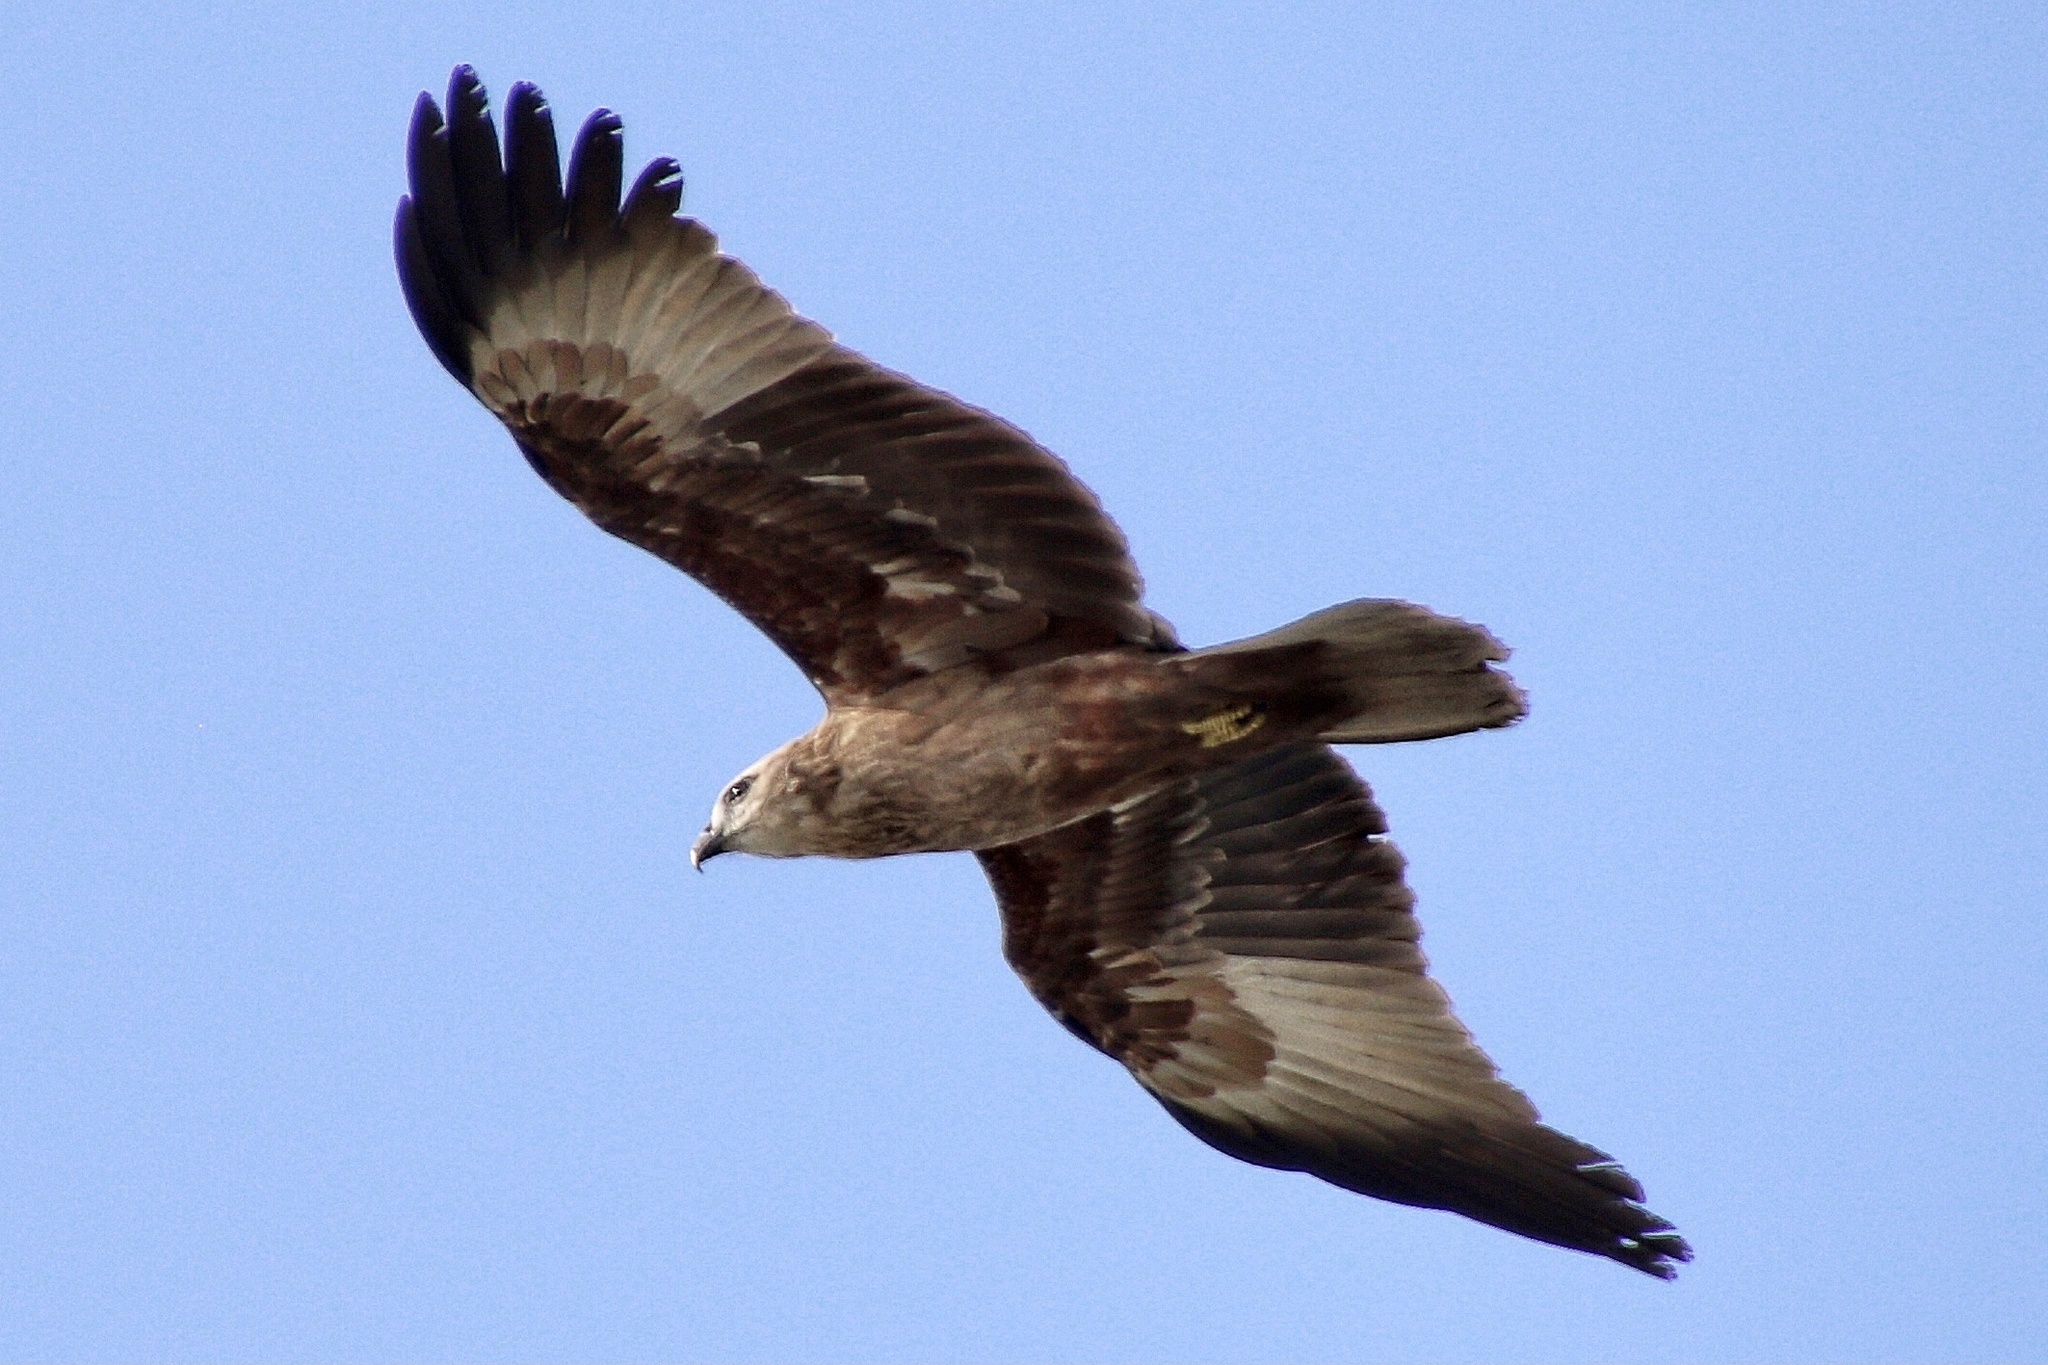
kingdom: Animalia
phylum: Chordata
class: Aves
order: Accipitriformes
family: Accipitridae
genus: Haliastur
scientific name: Haliastur indus
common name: Brahminy kite
